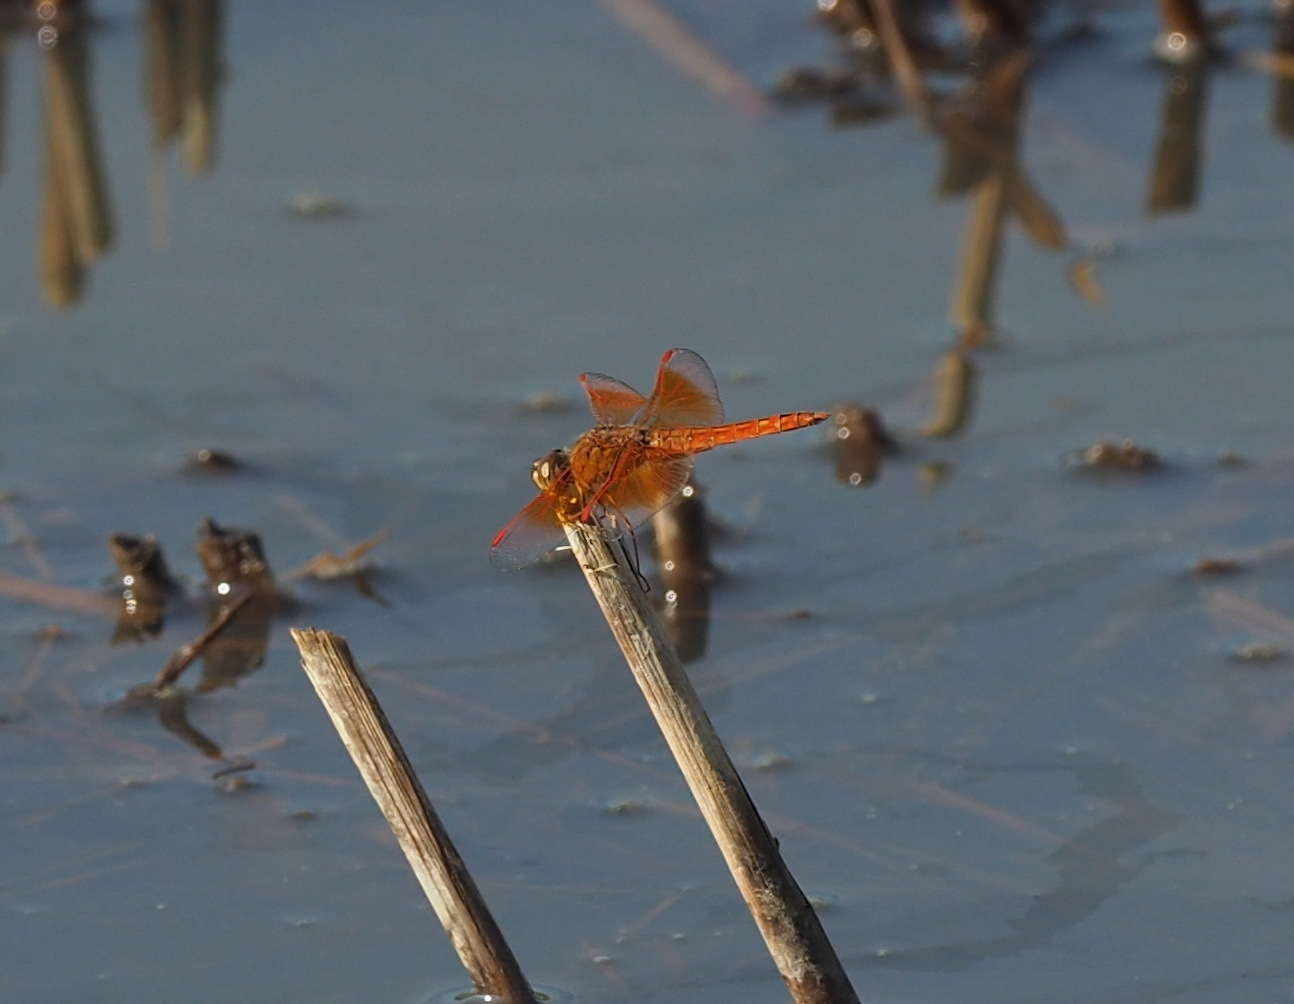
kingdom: Animalia
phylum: Arthropoda
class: Insecta
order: Odonata
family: Libellulidae
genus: Brachythemis
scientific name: Brachythemis contaminata
